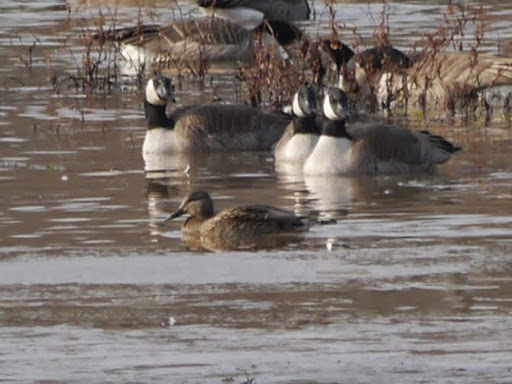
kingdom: Animalia
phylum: Chordata
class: Aves
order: Anseriformes
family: Anatidae
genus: Mareca
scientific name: Mareca strepera
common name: Gadwall
